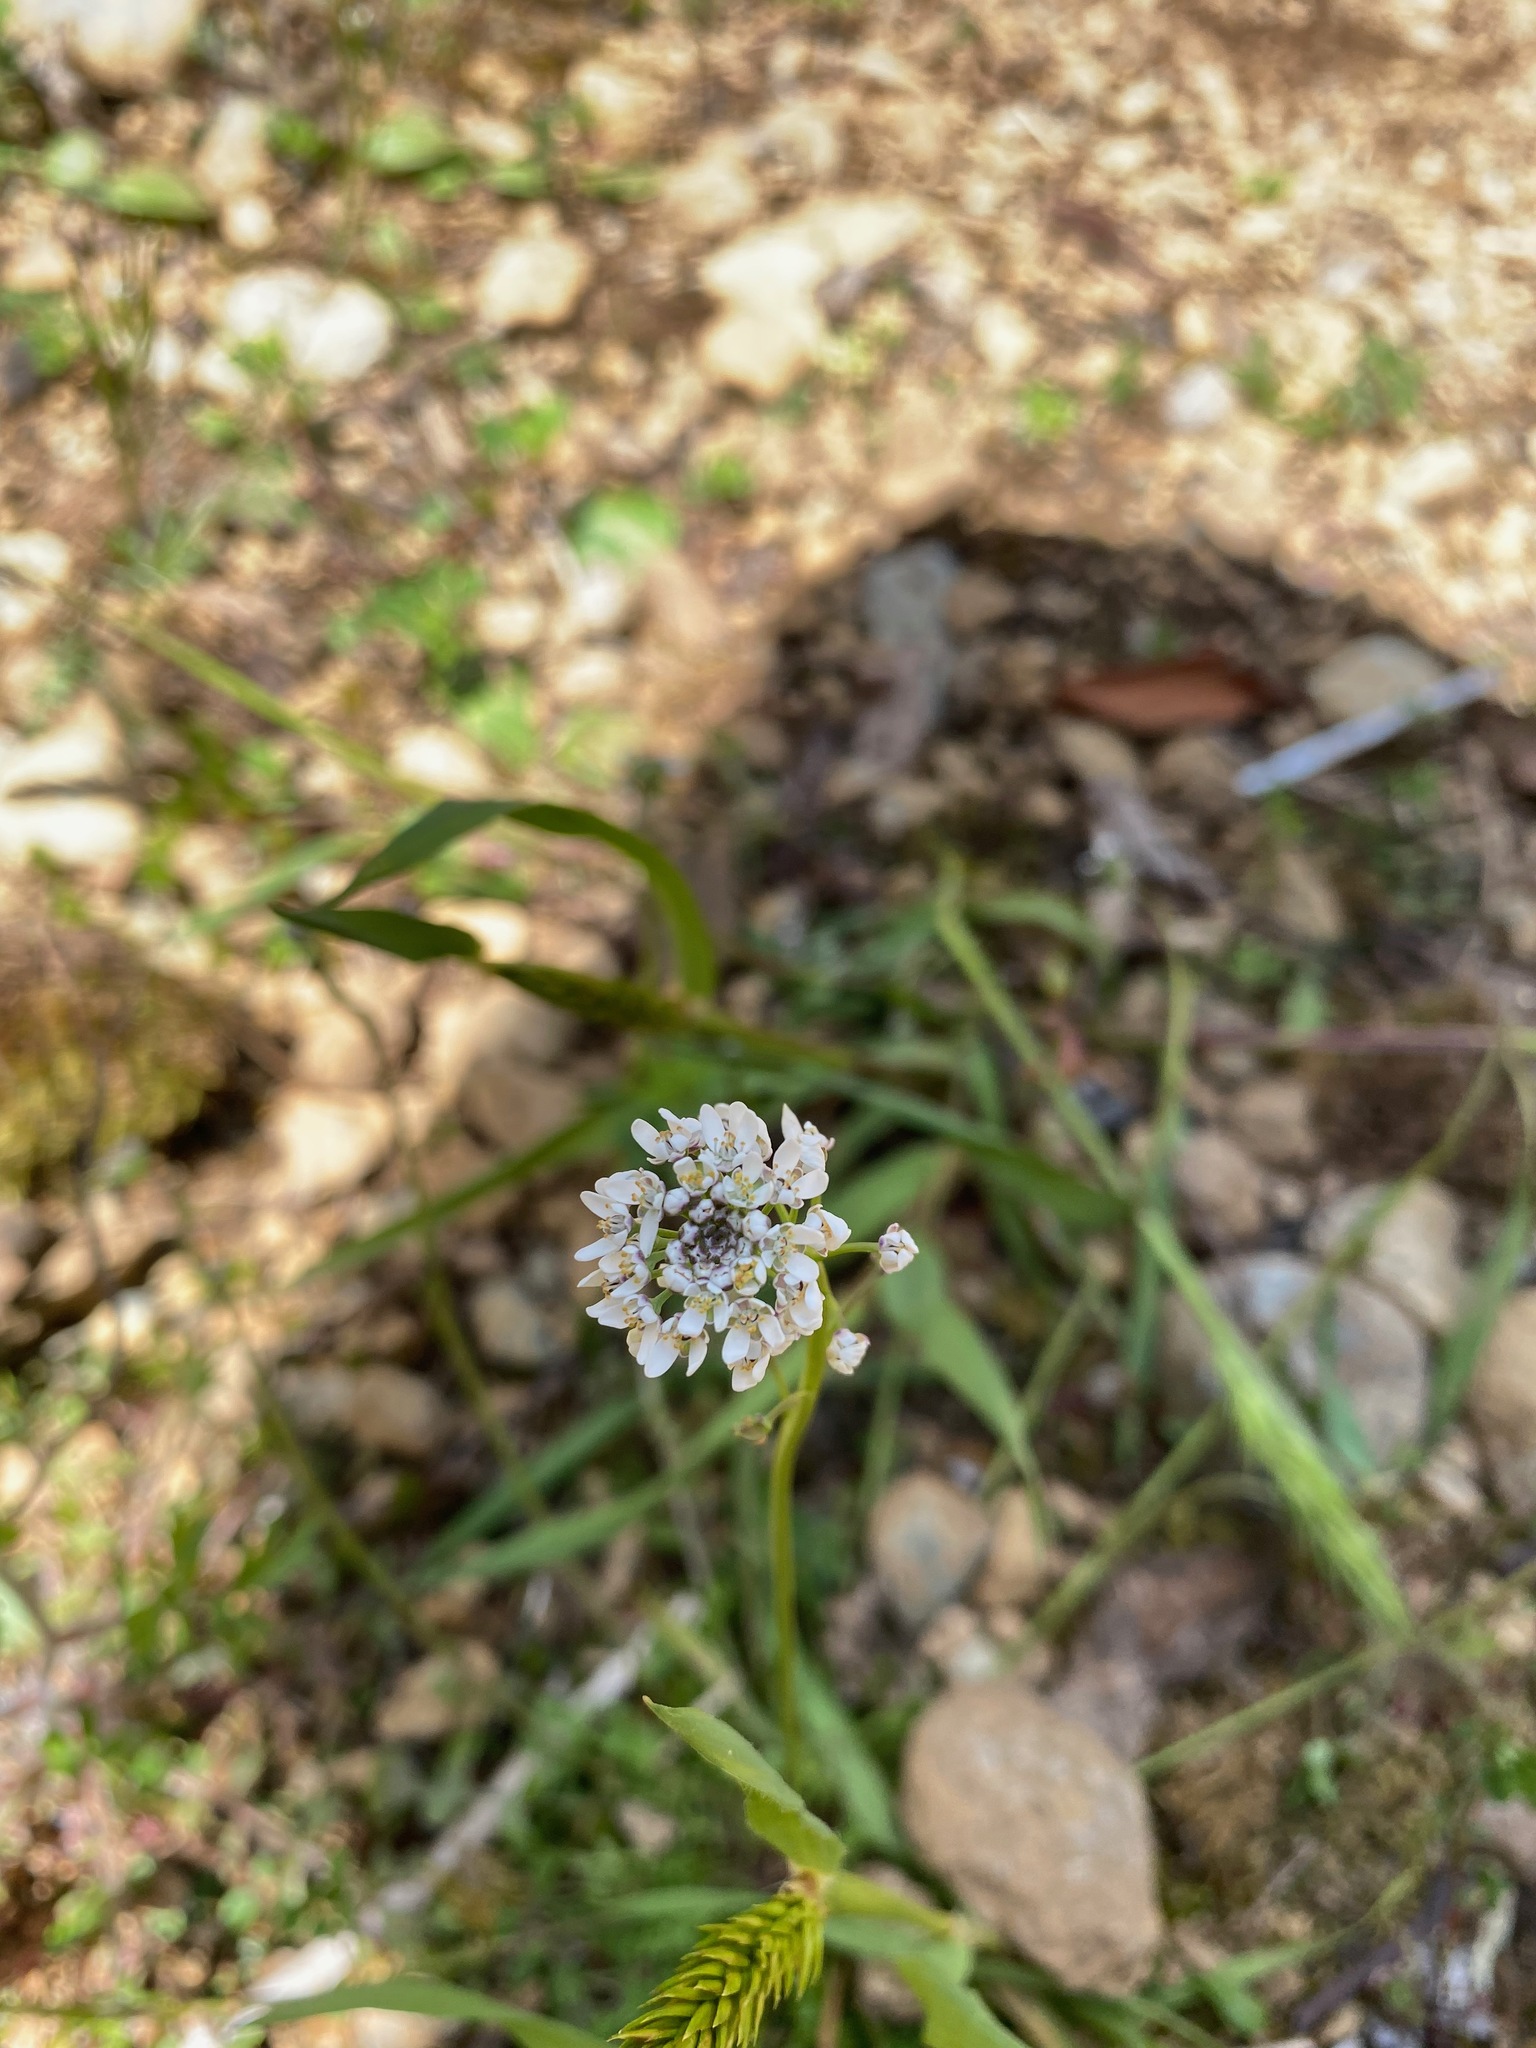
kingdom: Plantae
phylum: Tracheophyta
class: Magnoliopsida
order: Brassicales
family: Brassicaceae
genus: Teesdalia
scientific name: Teesdalia nudicaulis
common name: Shepherd's cress
